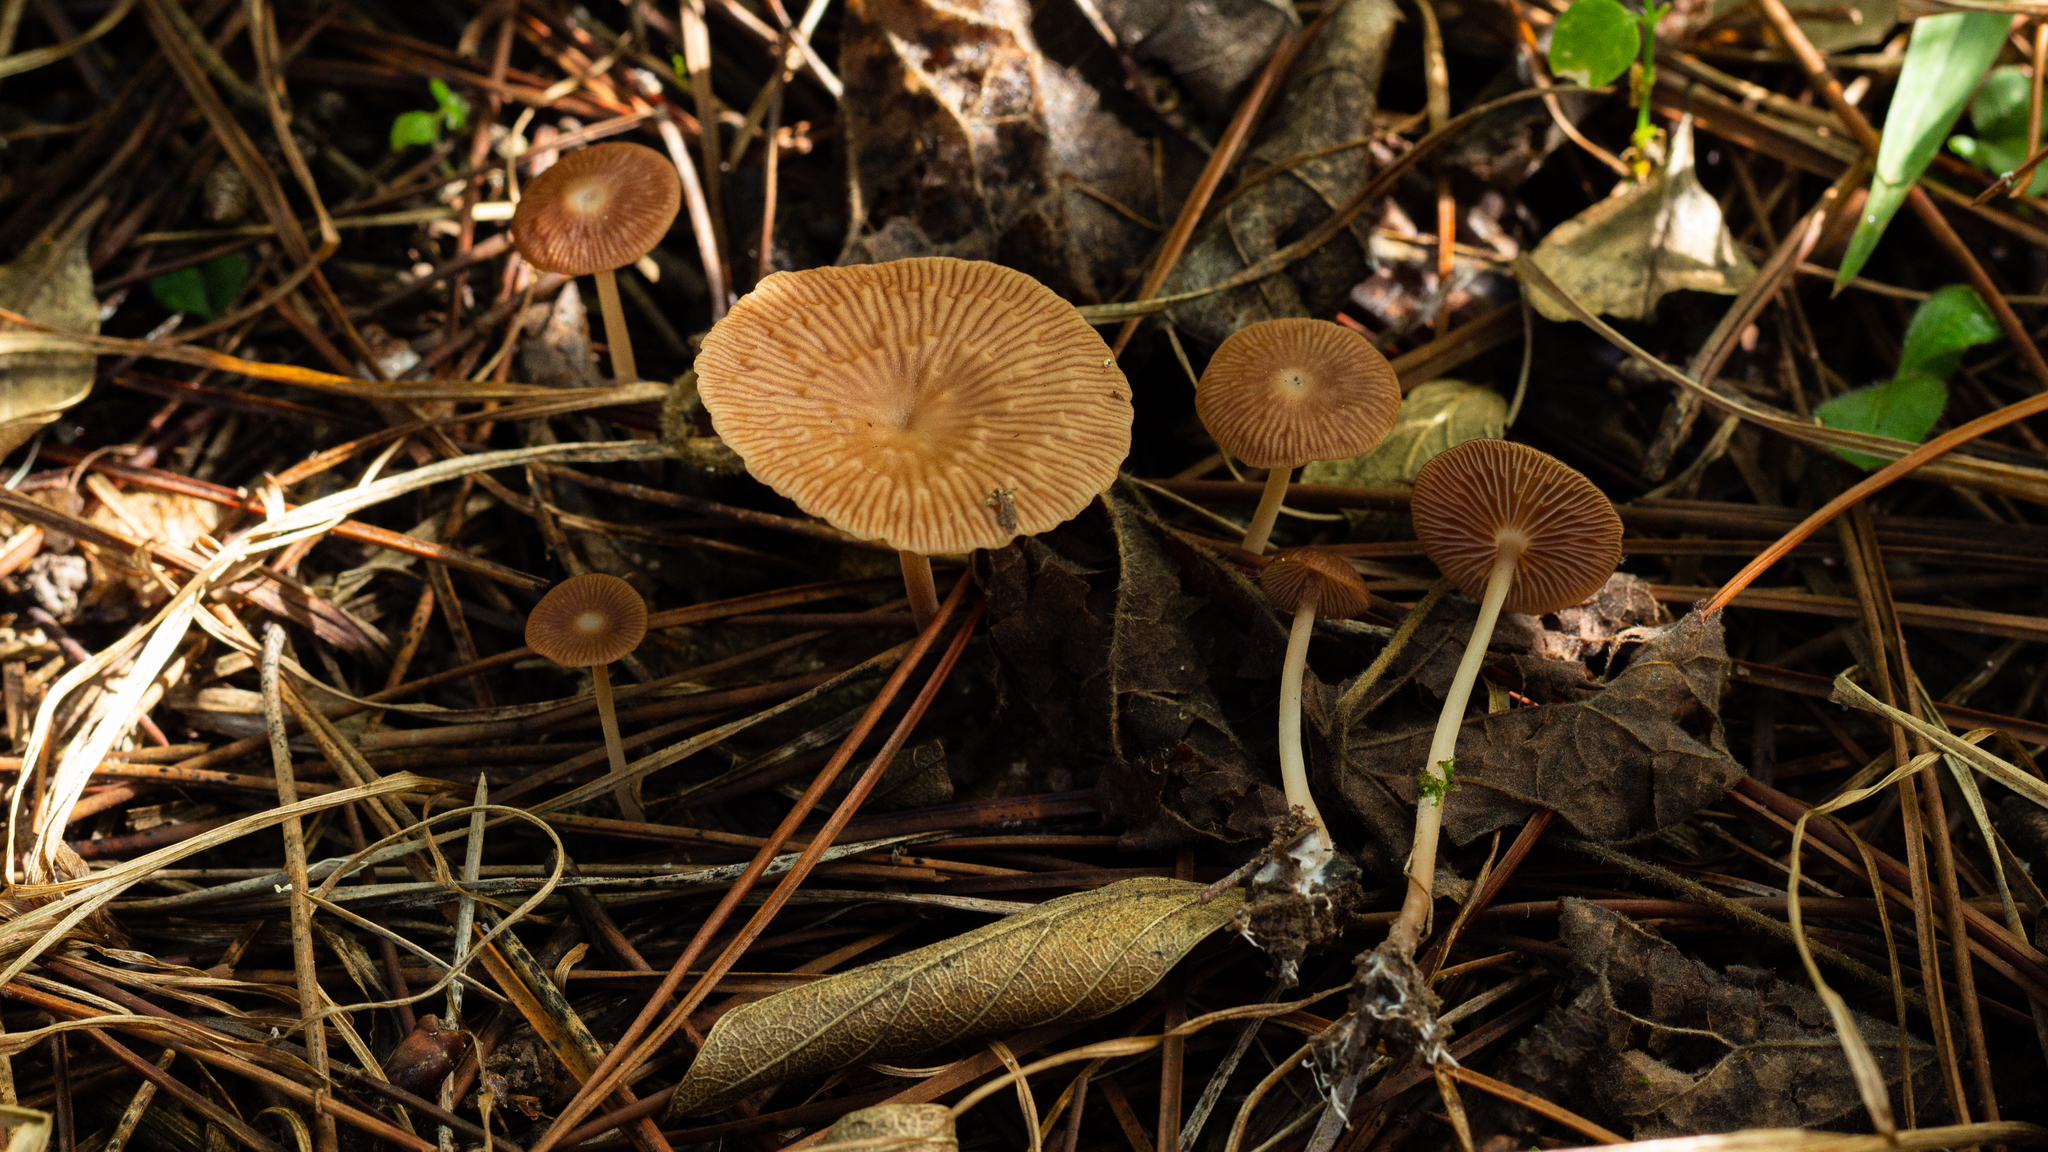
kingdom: Fungi
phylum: Basidiomycota
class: Agaricomycetes
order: Agaricales
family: Omphalotaceae
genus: Collybiopsis
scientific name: Collybiopsis villosipes
